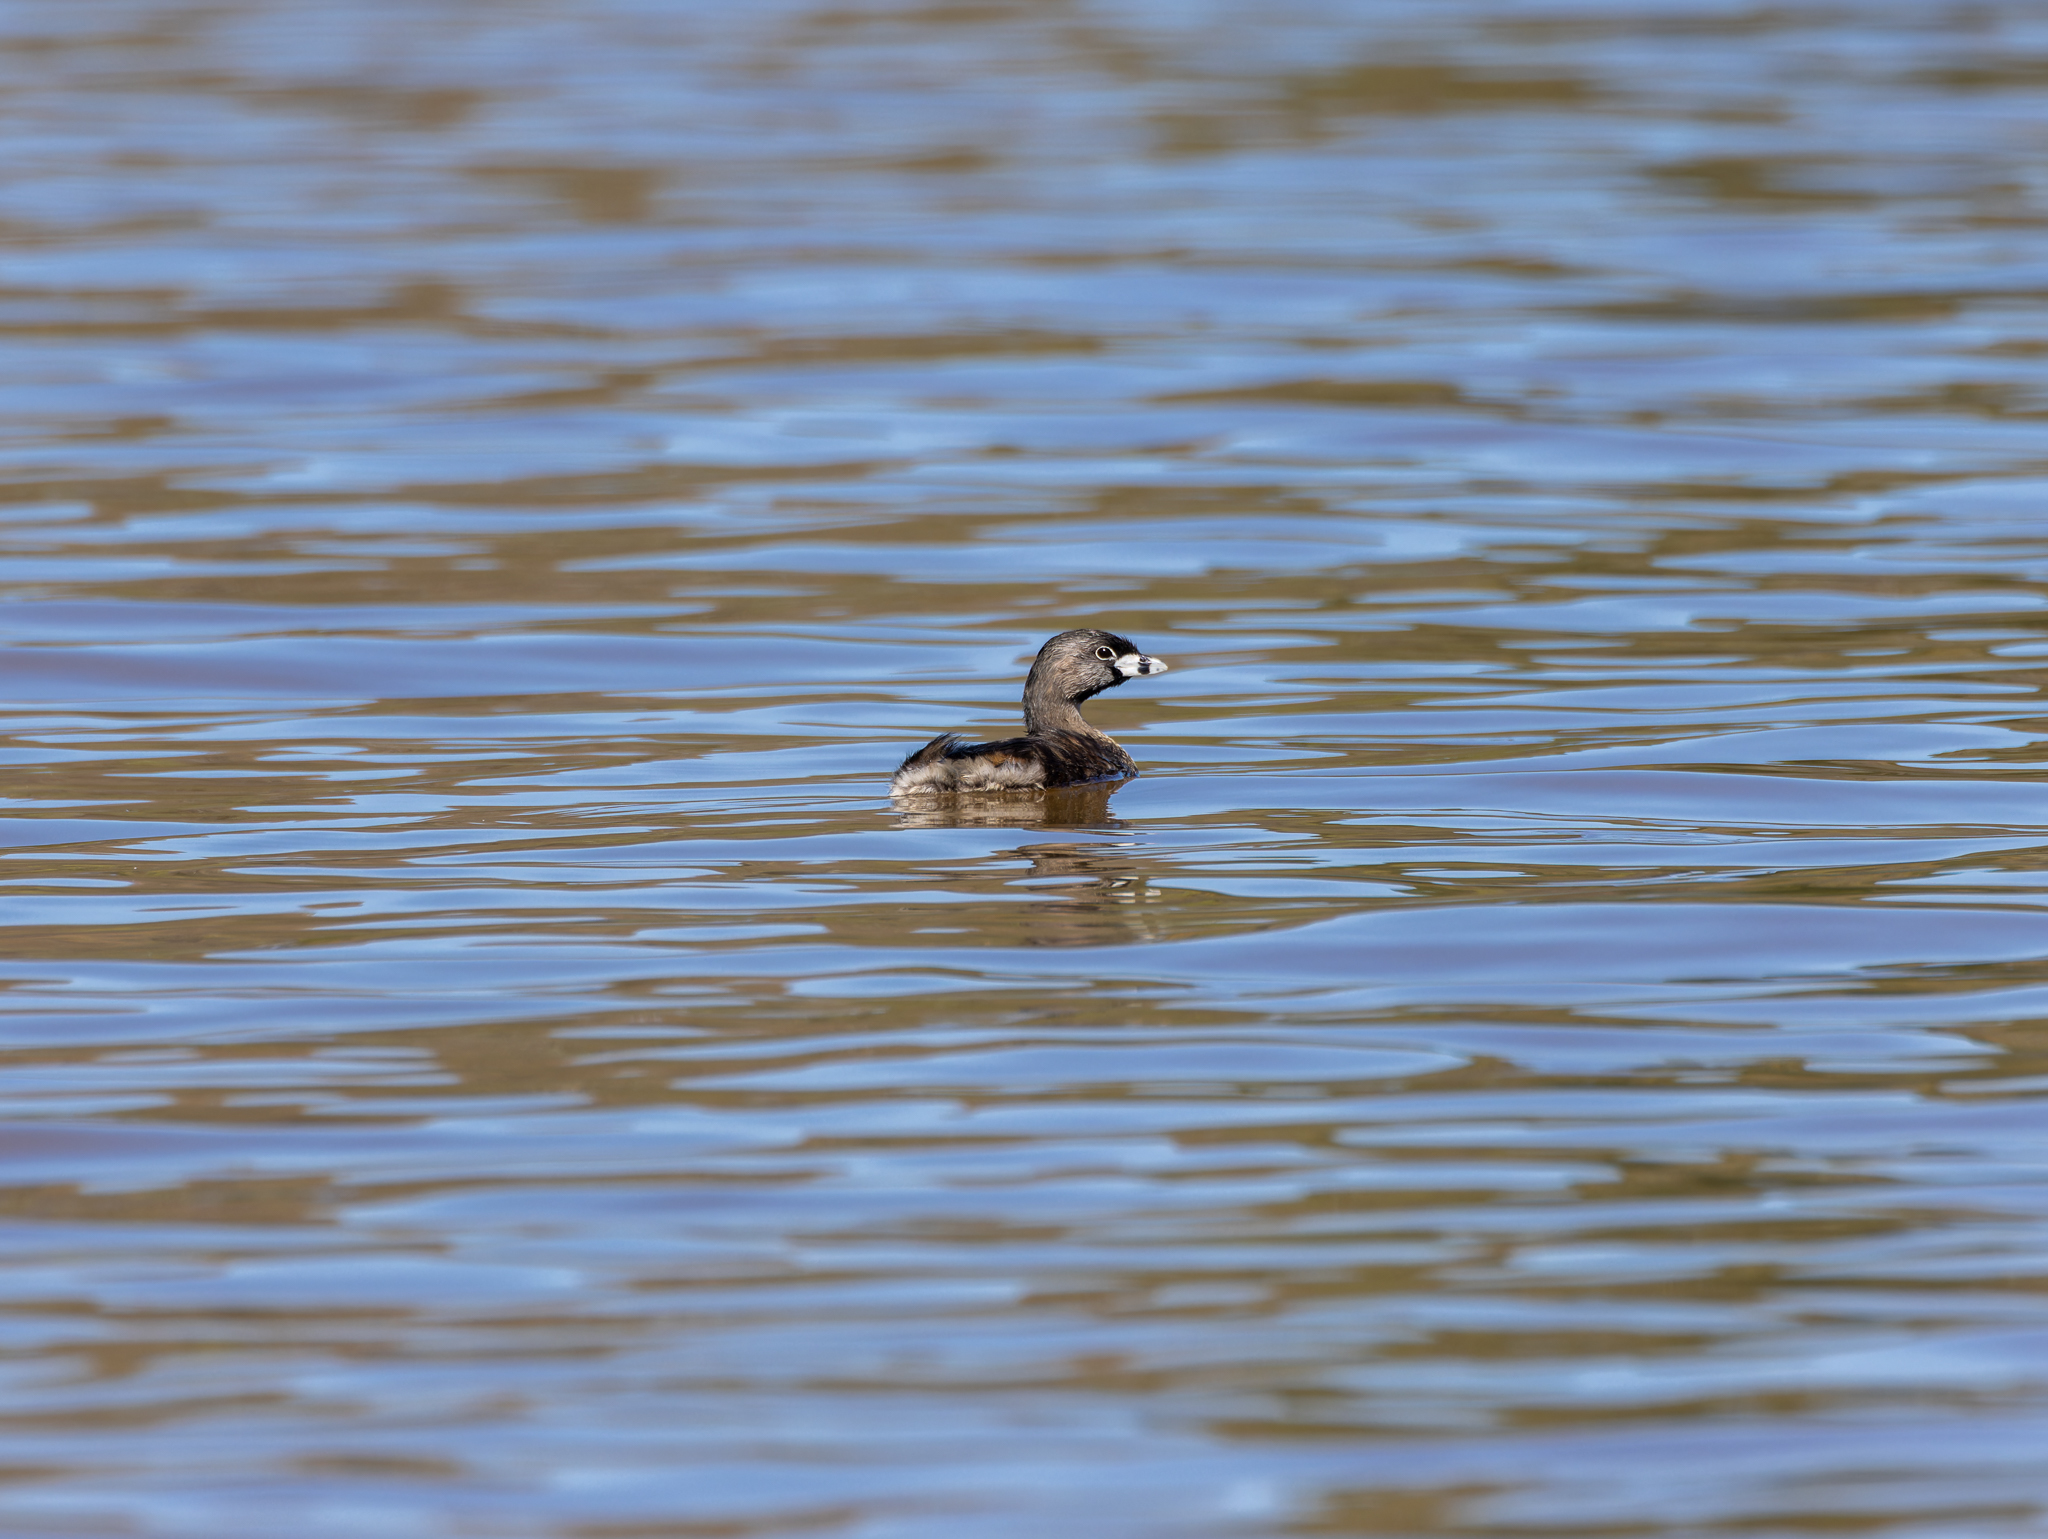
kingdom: Animalia
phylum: Chordata
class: Aves
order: Podicipediformes
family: Podicipedidae
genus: Podilymbus
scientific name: Podilymbus podiceps
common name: Pied-billed grebe
